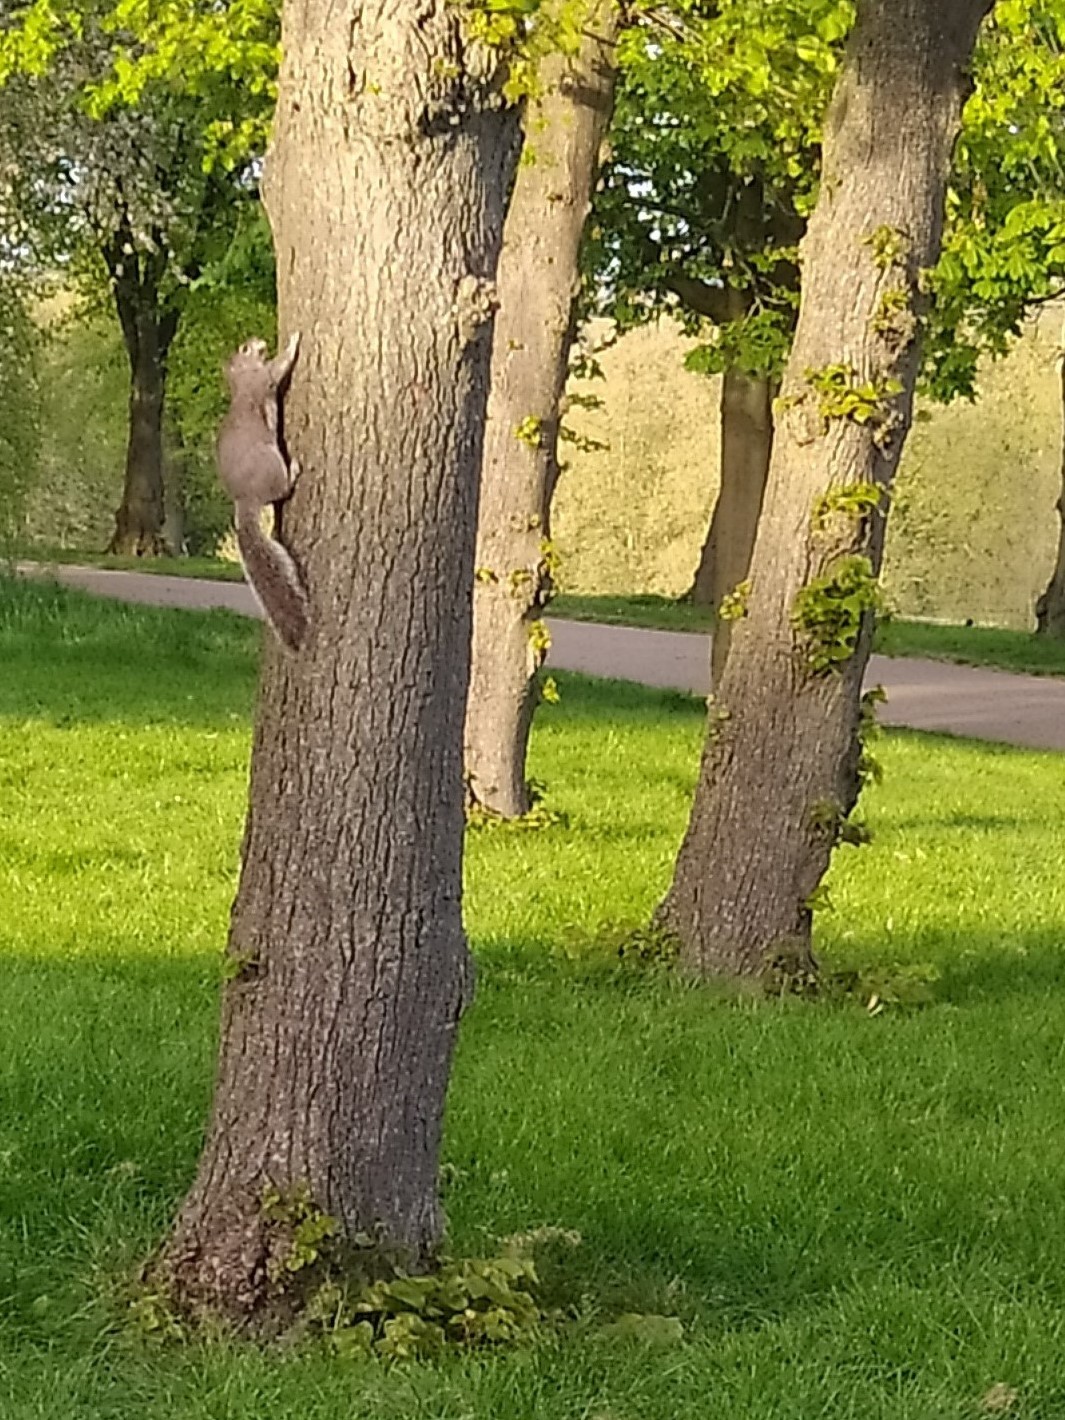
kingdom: Animalia
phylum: Chordata
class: Mammalia
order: Rodentia
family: Sciuridae
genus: Sciurus
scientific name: Sciurus carolinensis
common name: Eastern gray squirrel
